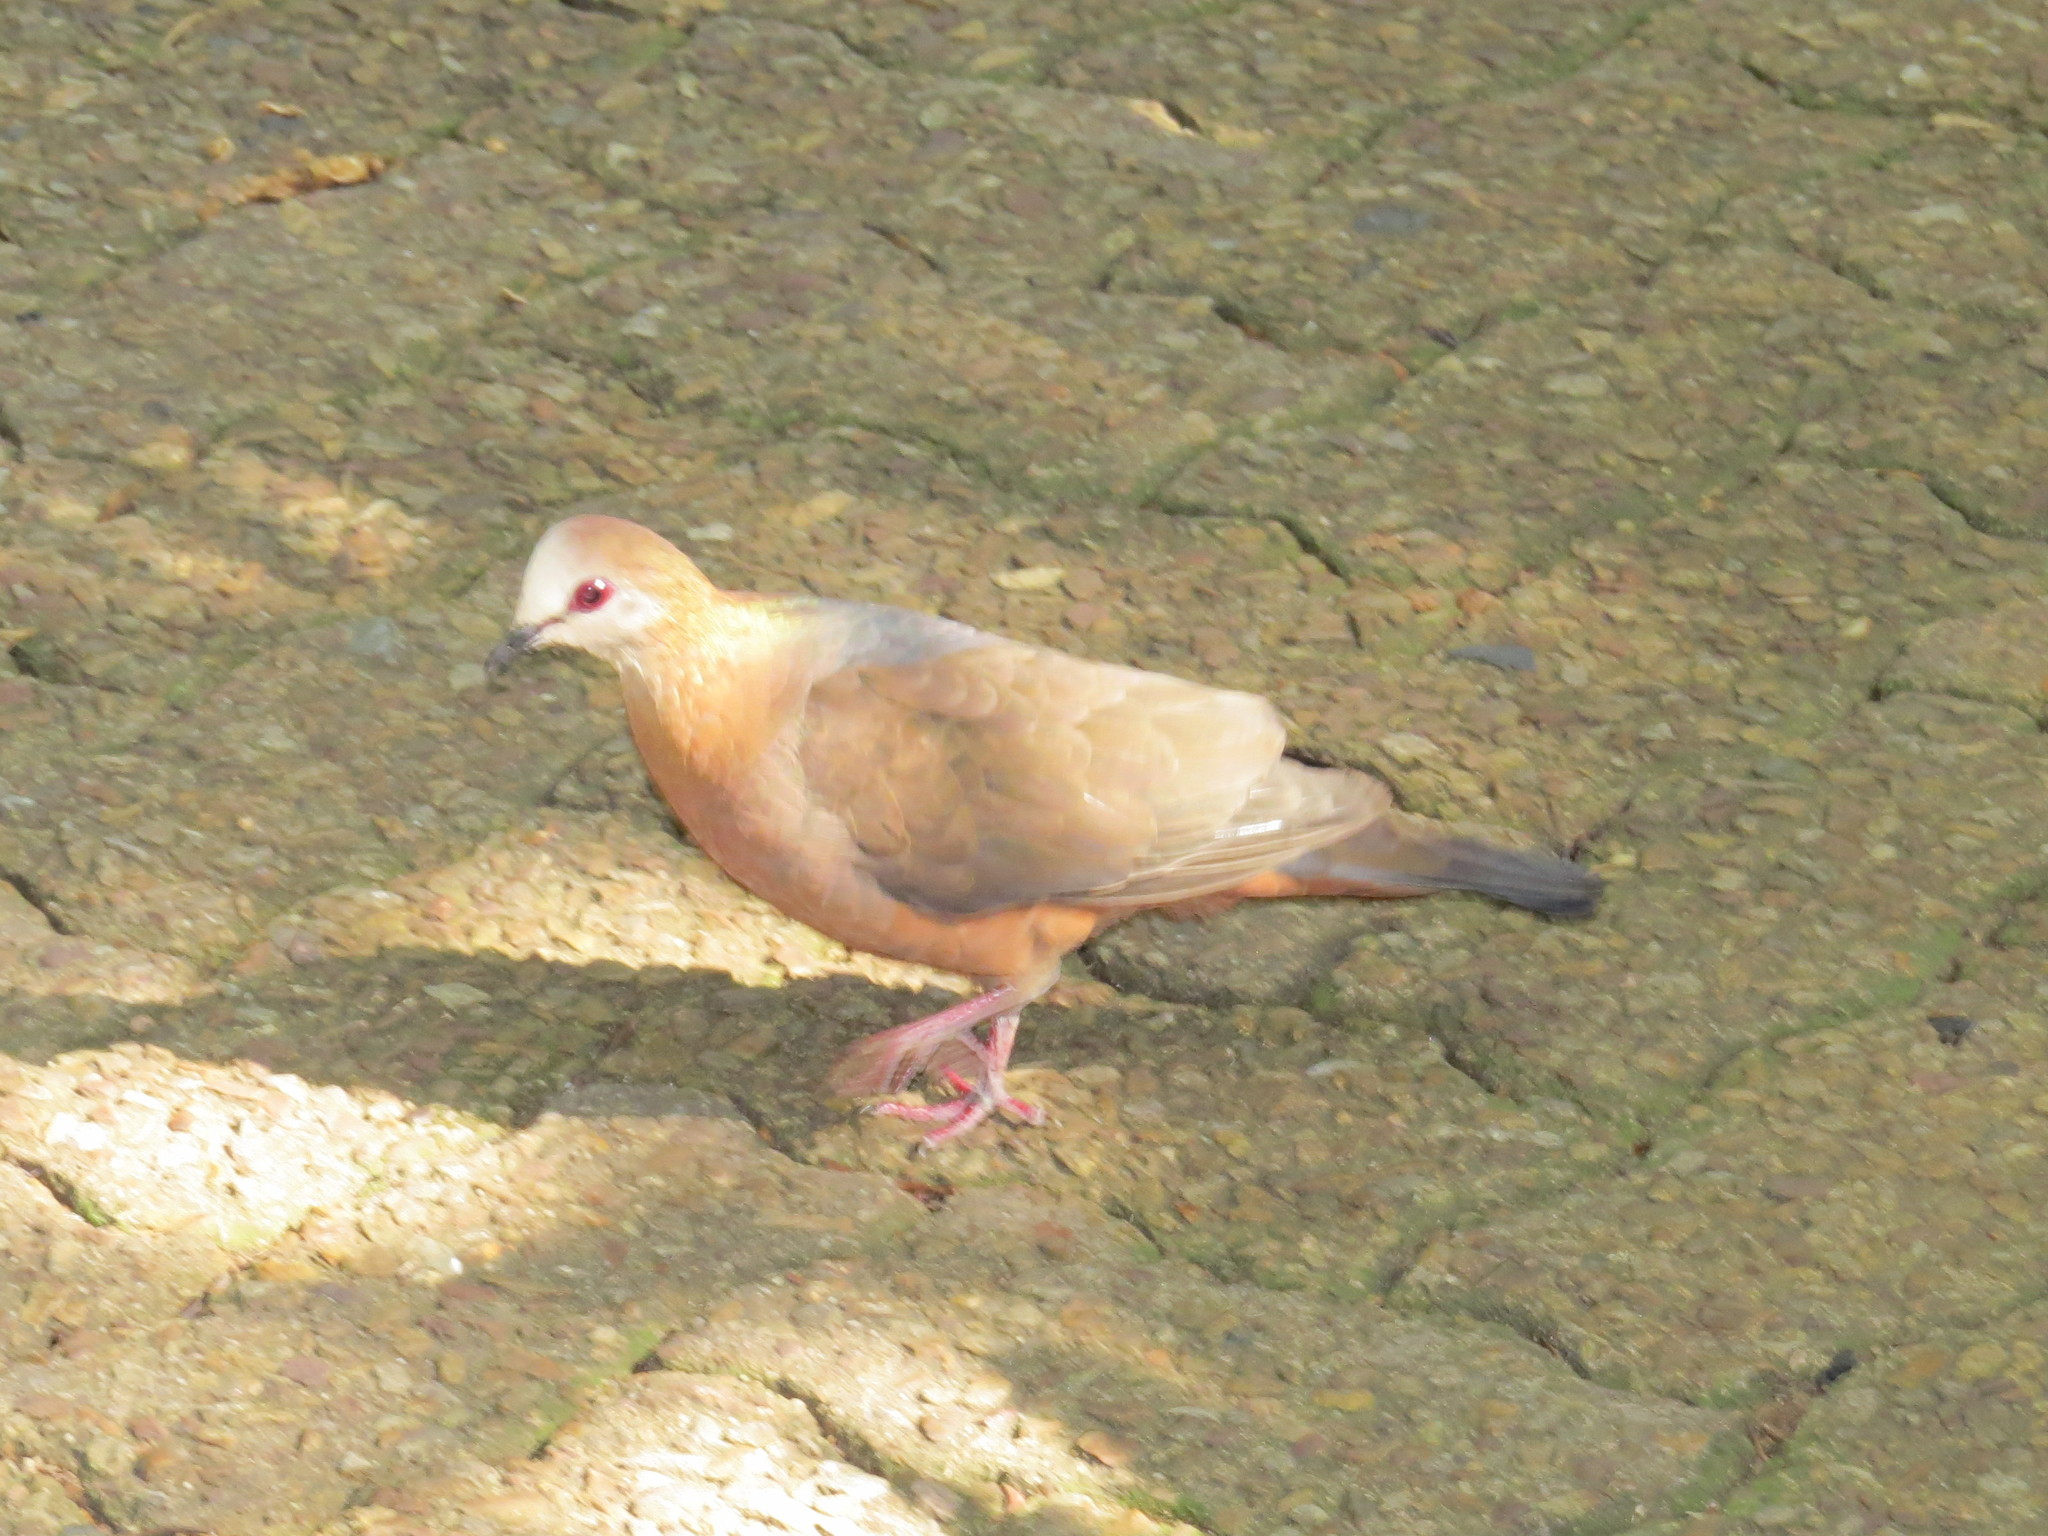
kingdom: Animalia
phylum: Chordata
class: Aves
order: Columbiformes
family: Columbidae
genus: Columba
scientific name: Columba larvata
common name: Lemon dove
